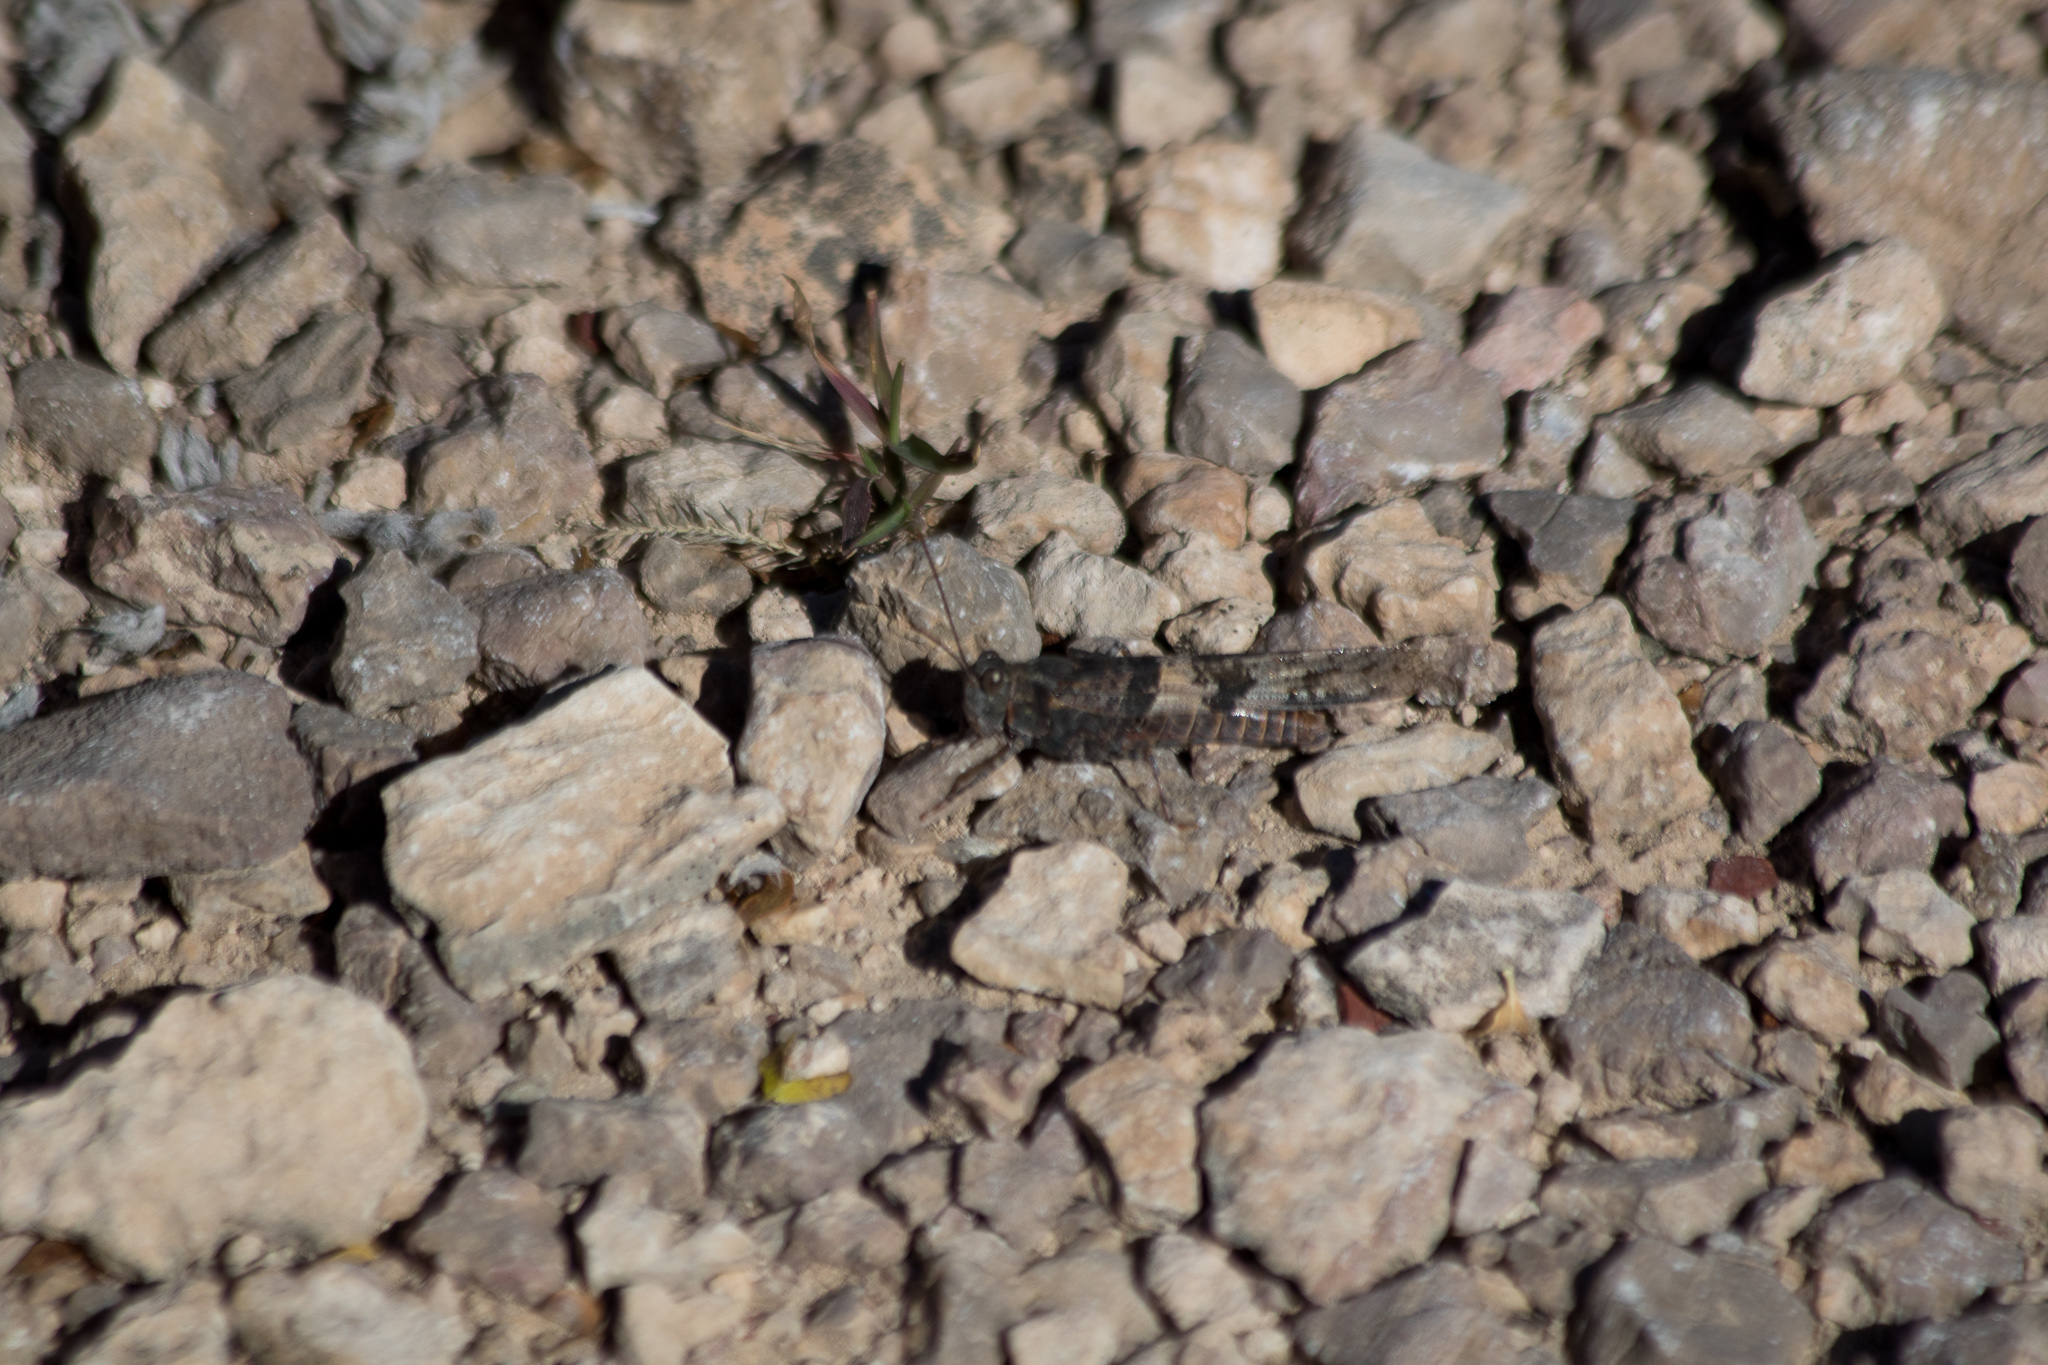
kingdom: Animalia
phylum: Arthropoda
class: Insecta
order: Orthoptera
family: Acrididae
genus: Trimerotropis
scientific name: Trimerotropis pallidipennis
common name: Pallid-winged grasshopper
